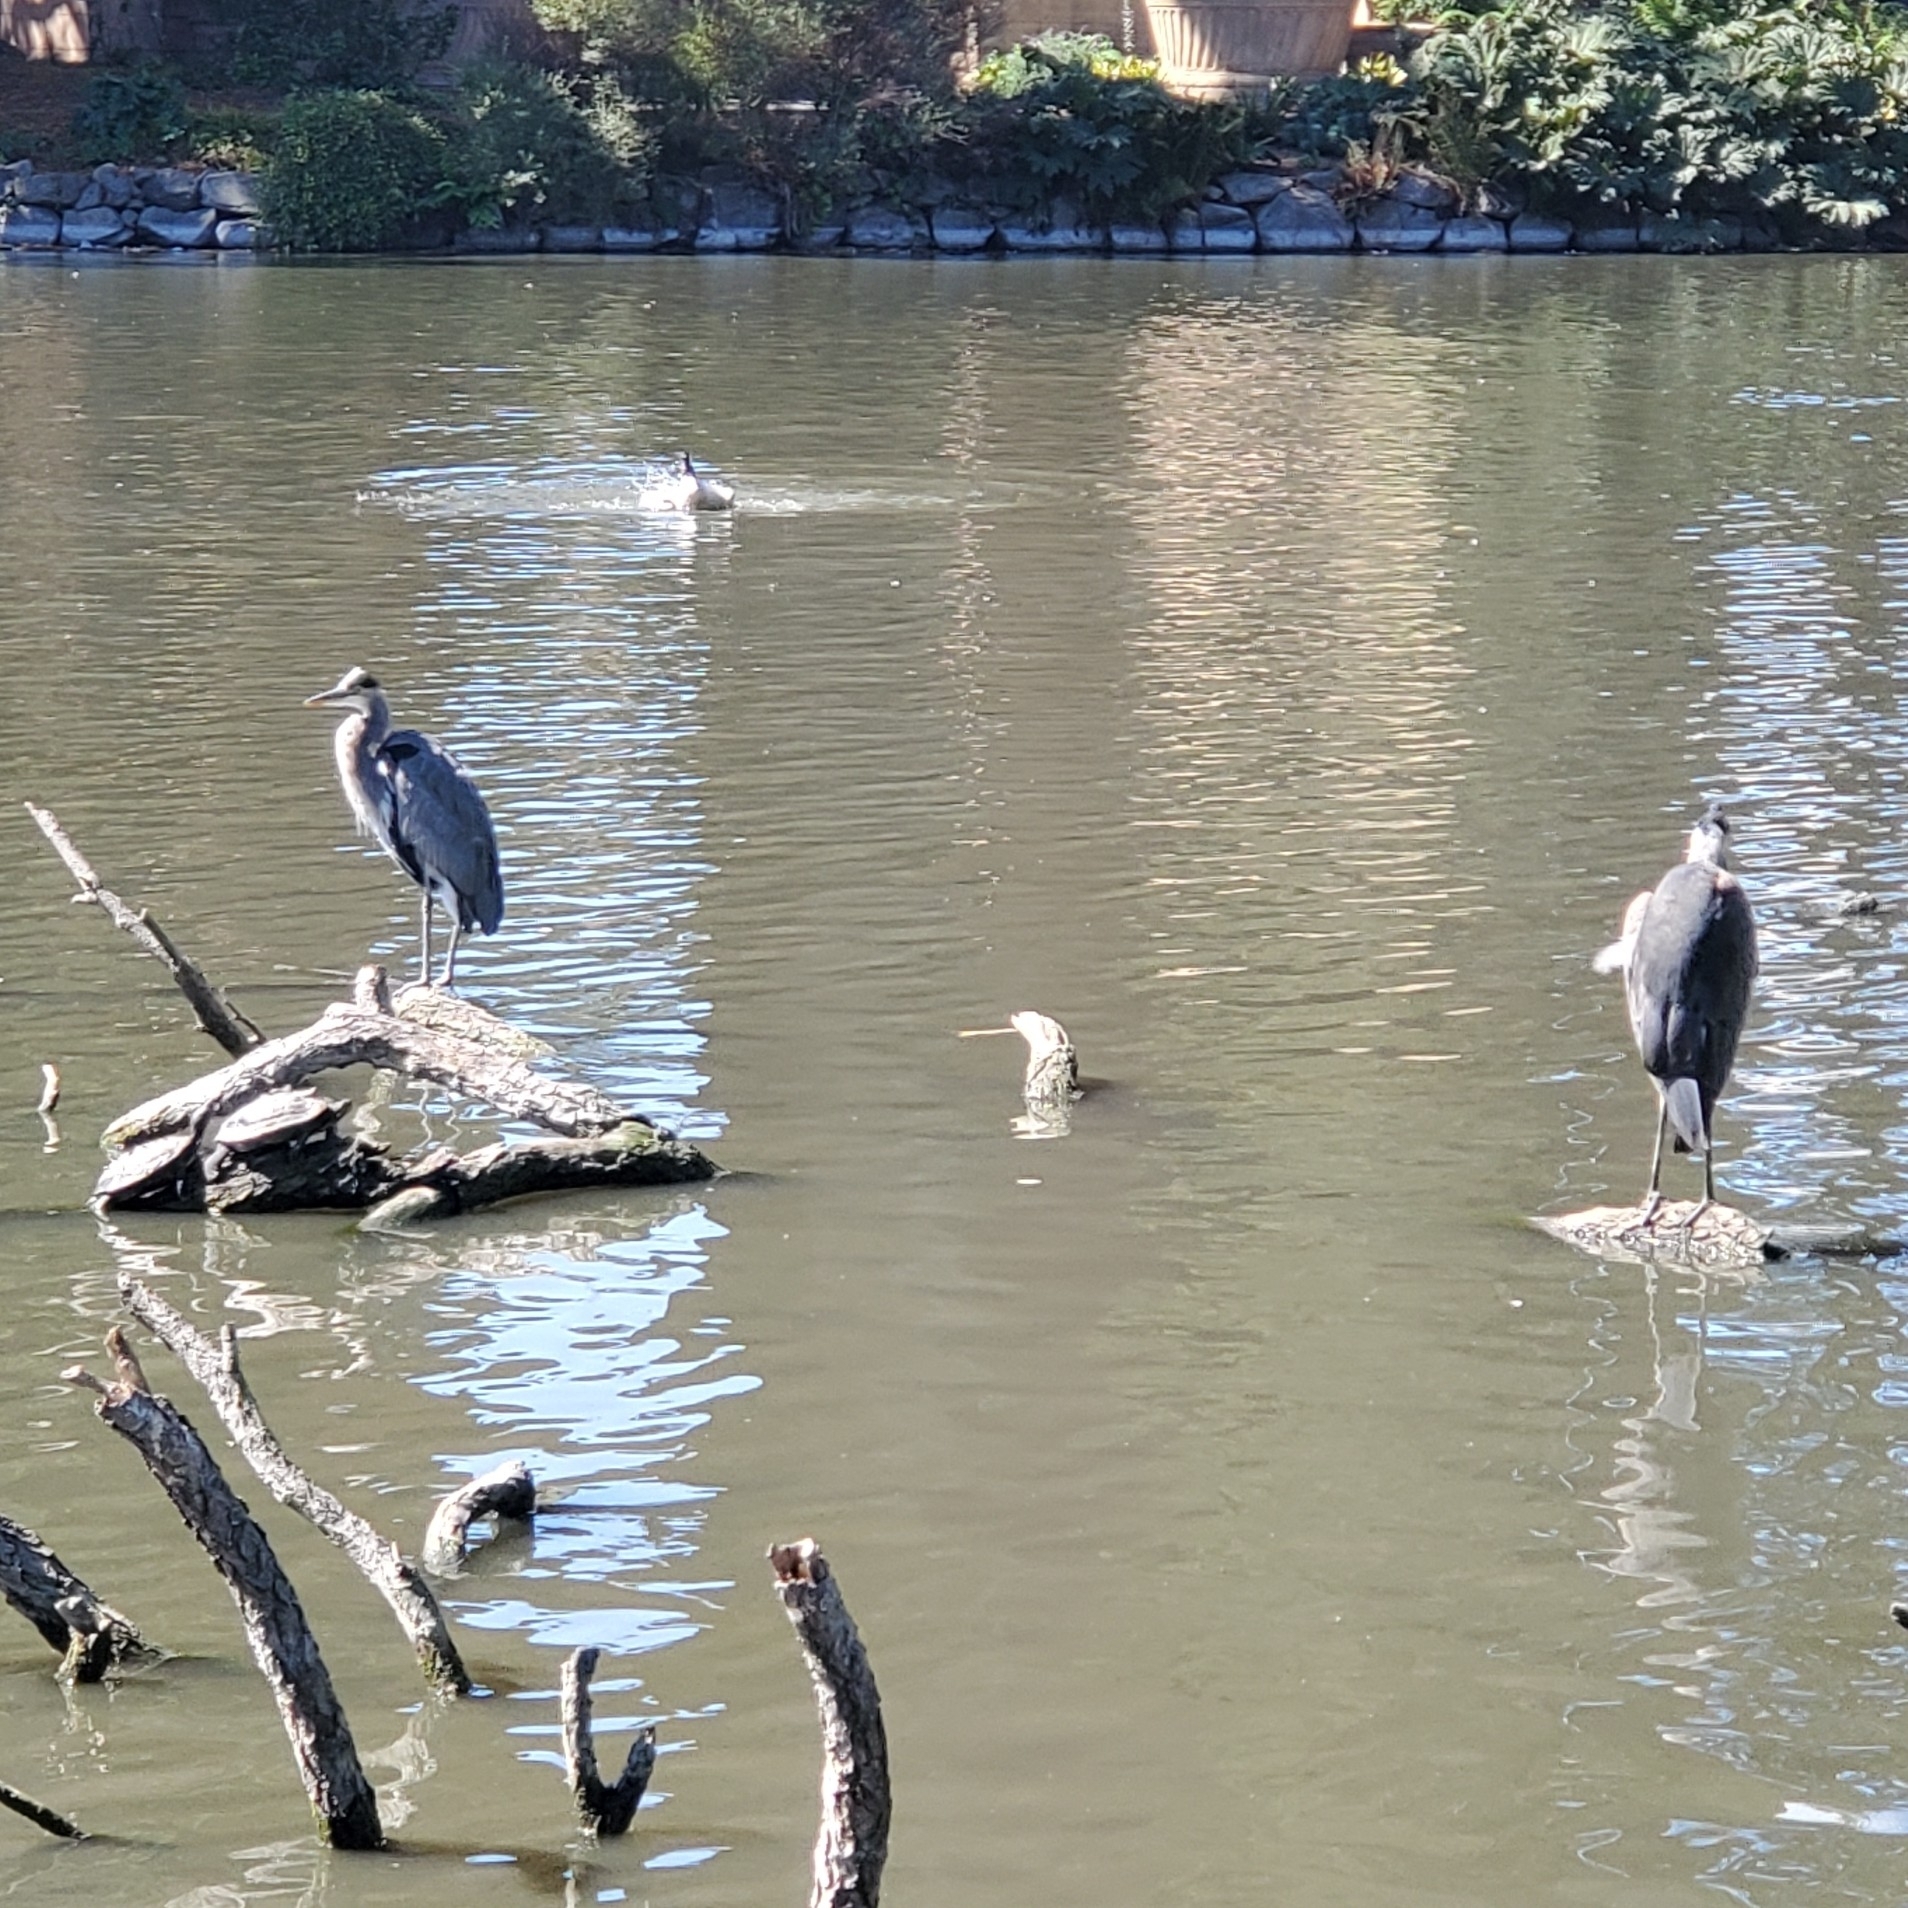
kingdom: Animalia
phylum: Chordata
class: Aves
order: Pelecaniformes
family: Ardeidae
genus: Ardea
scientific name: Ardea herodias
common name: Great blue heron
